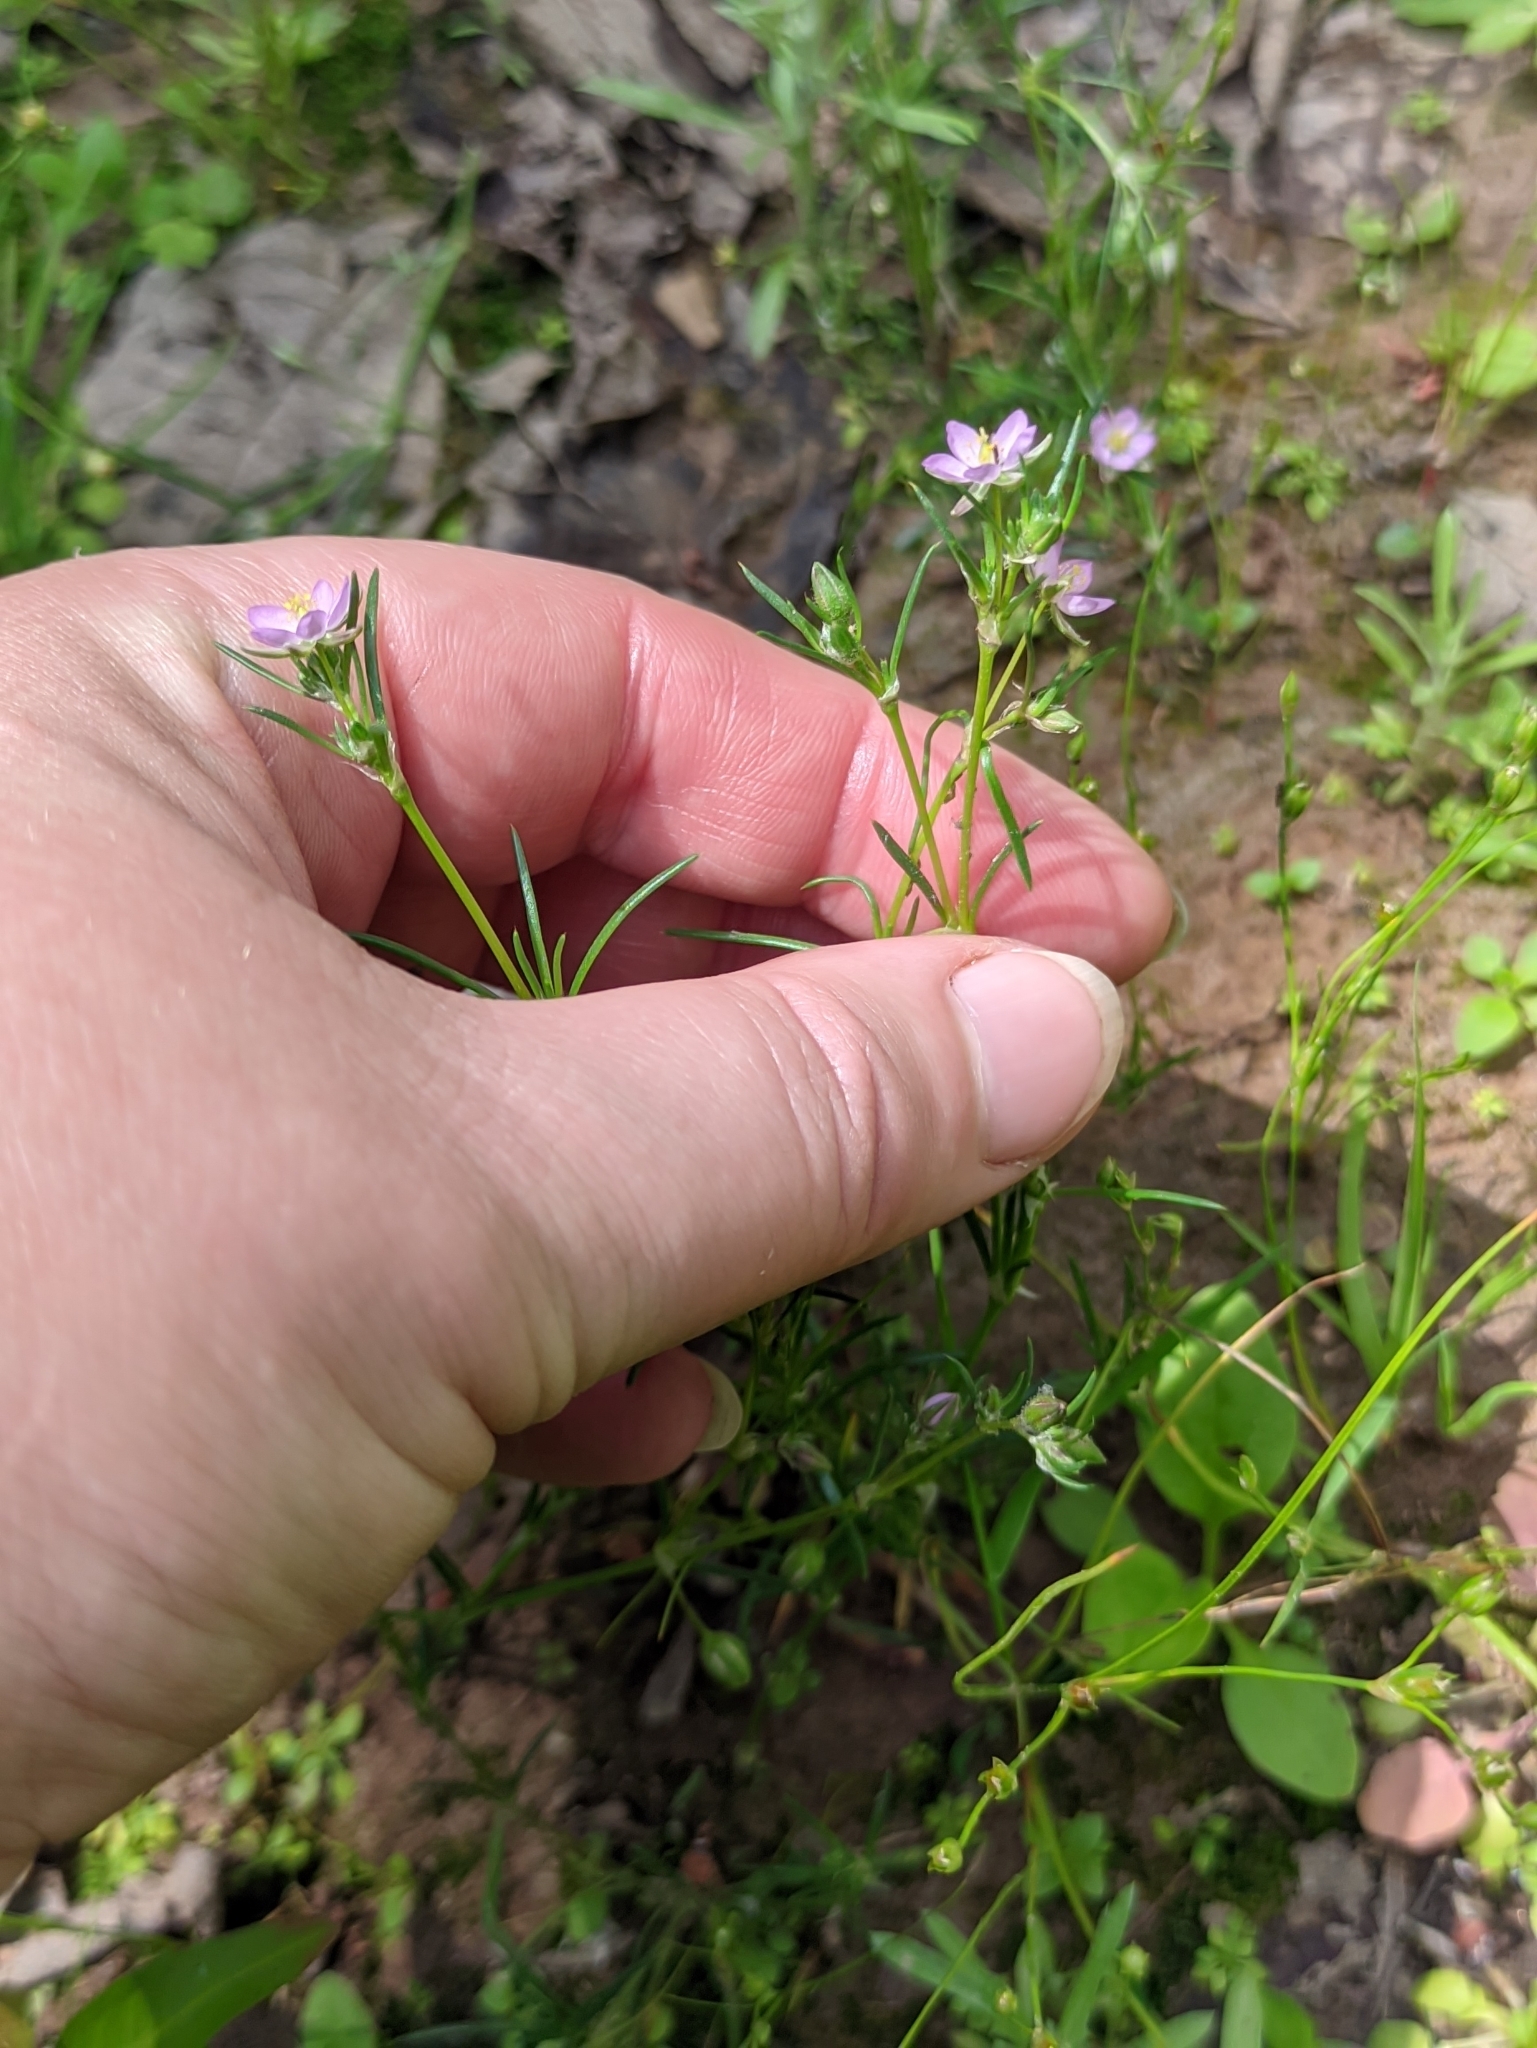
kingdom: Plantae
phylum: Tracheophyta
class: Magnoliopsida
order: Caryophyllales
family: Caryophyllaceae
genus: Spergularia
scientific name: Spergularia rubra
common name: Red sand-spurrey
